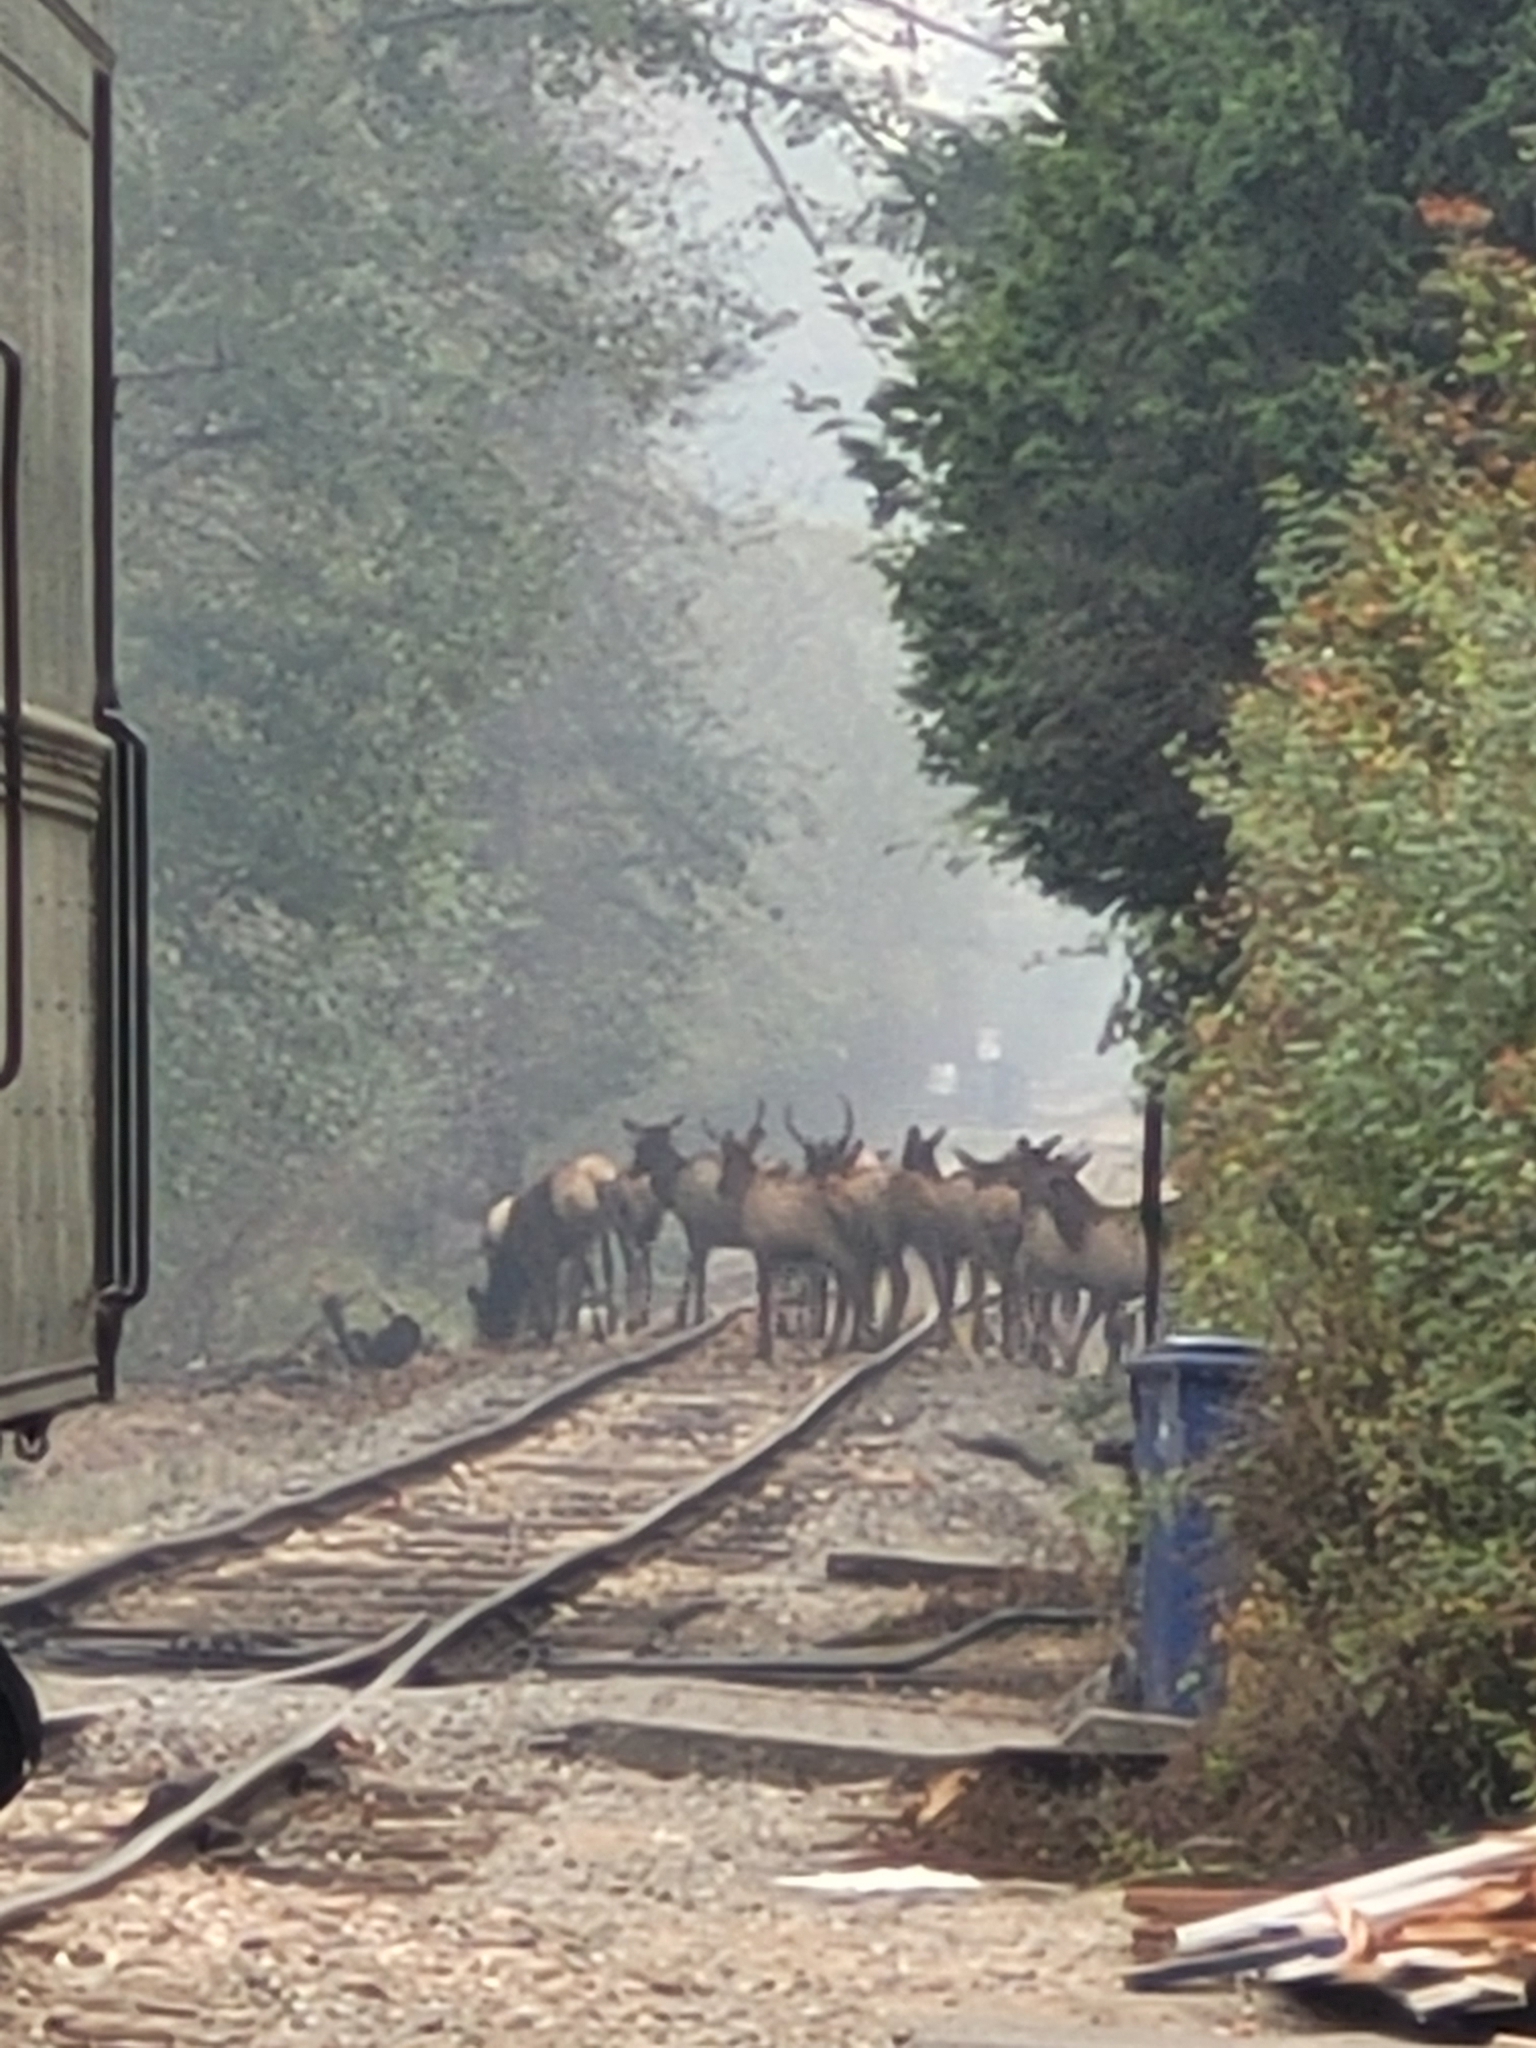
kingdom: Animalia
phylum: Chordata
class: Mammalia
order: Artiodactyla
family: Cervidae
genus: Cervus
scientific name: Cervus elaphus
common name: Red deer
